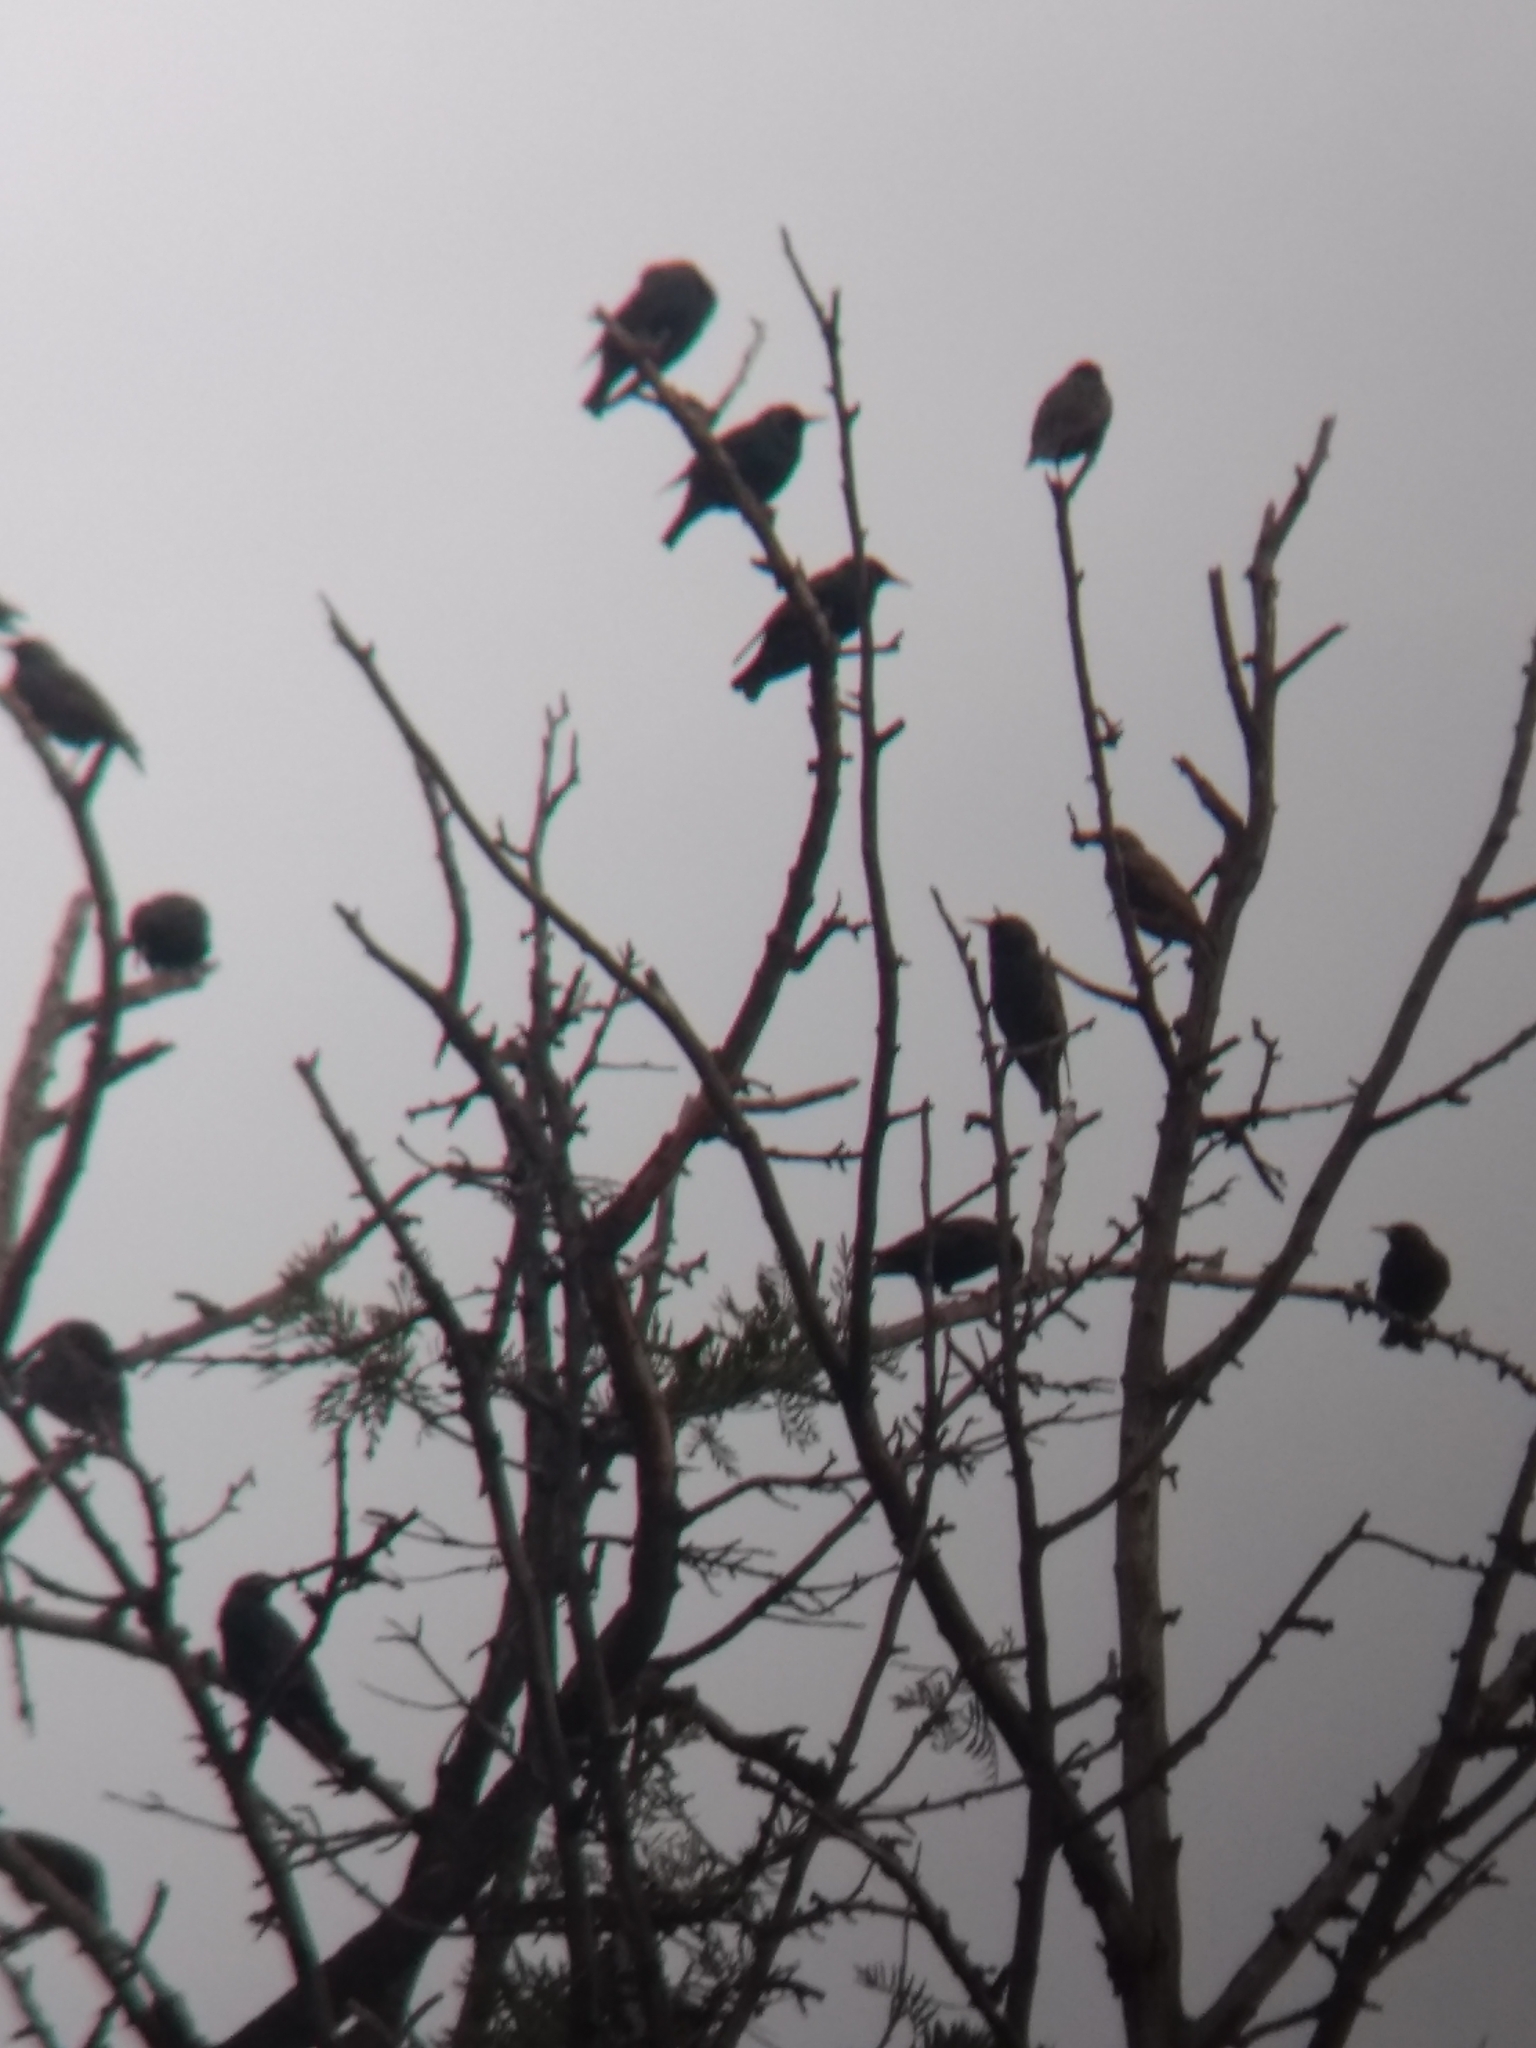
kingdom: Animalia
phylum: Chordata
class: Aves
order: Passeriformes
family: Sturnidae
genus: Sturnus
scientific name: Sturnus vulgaris
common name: Common starling
